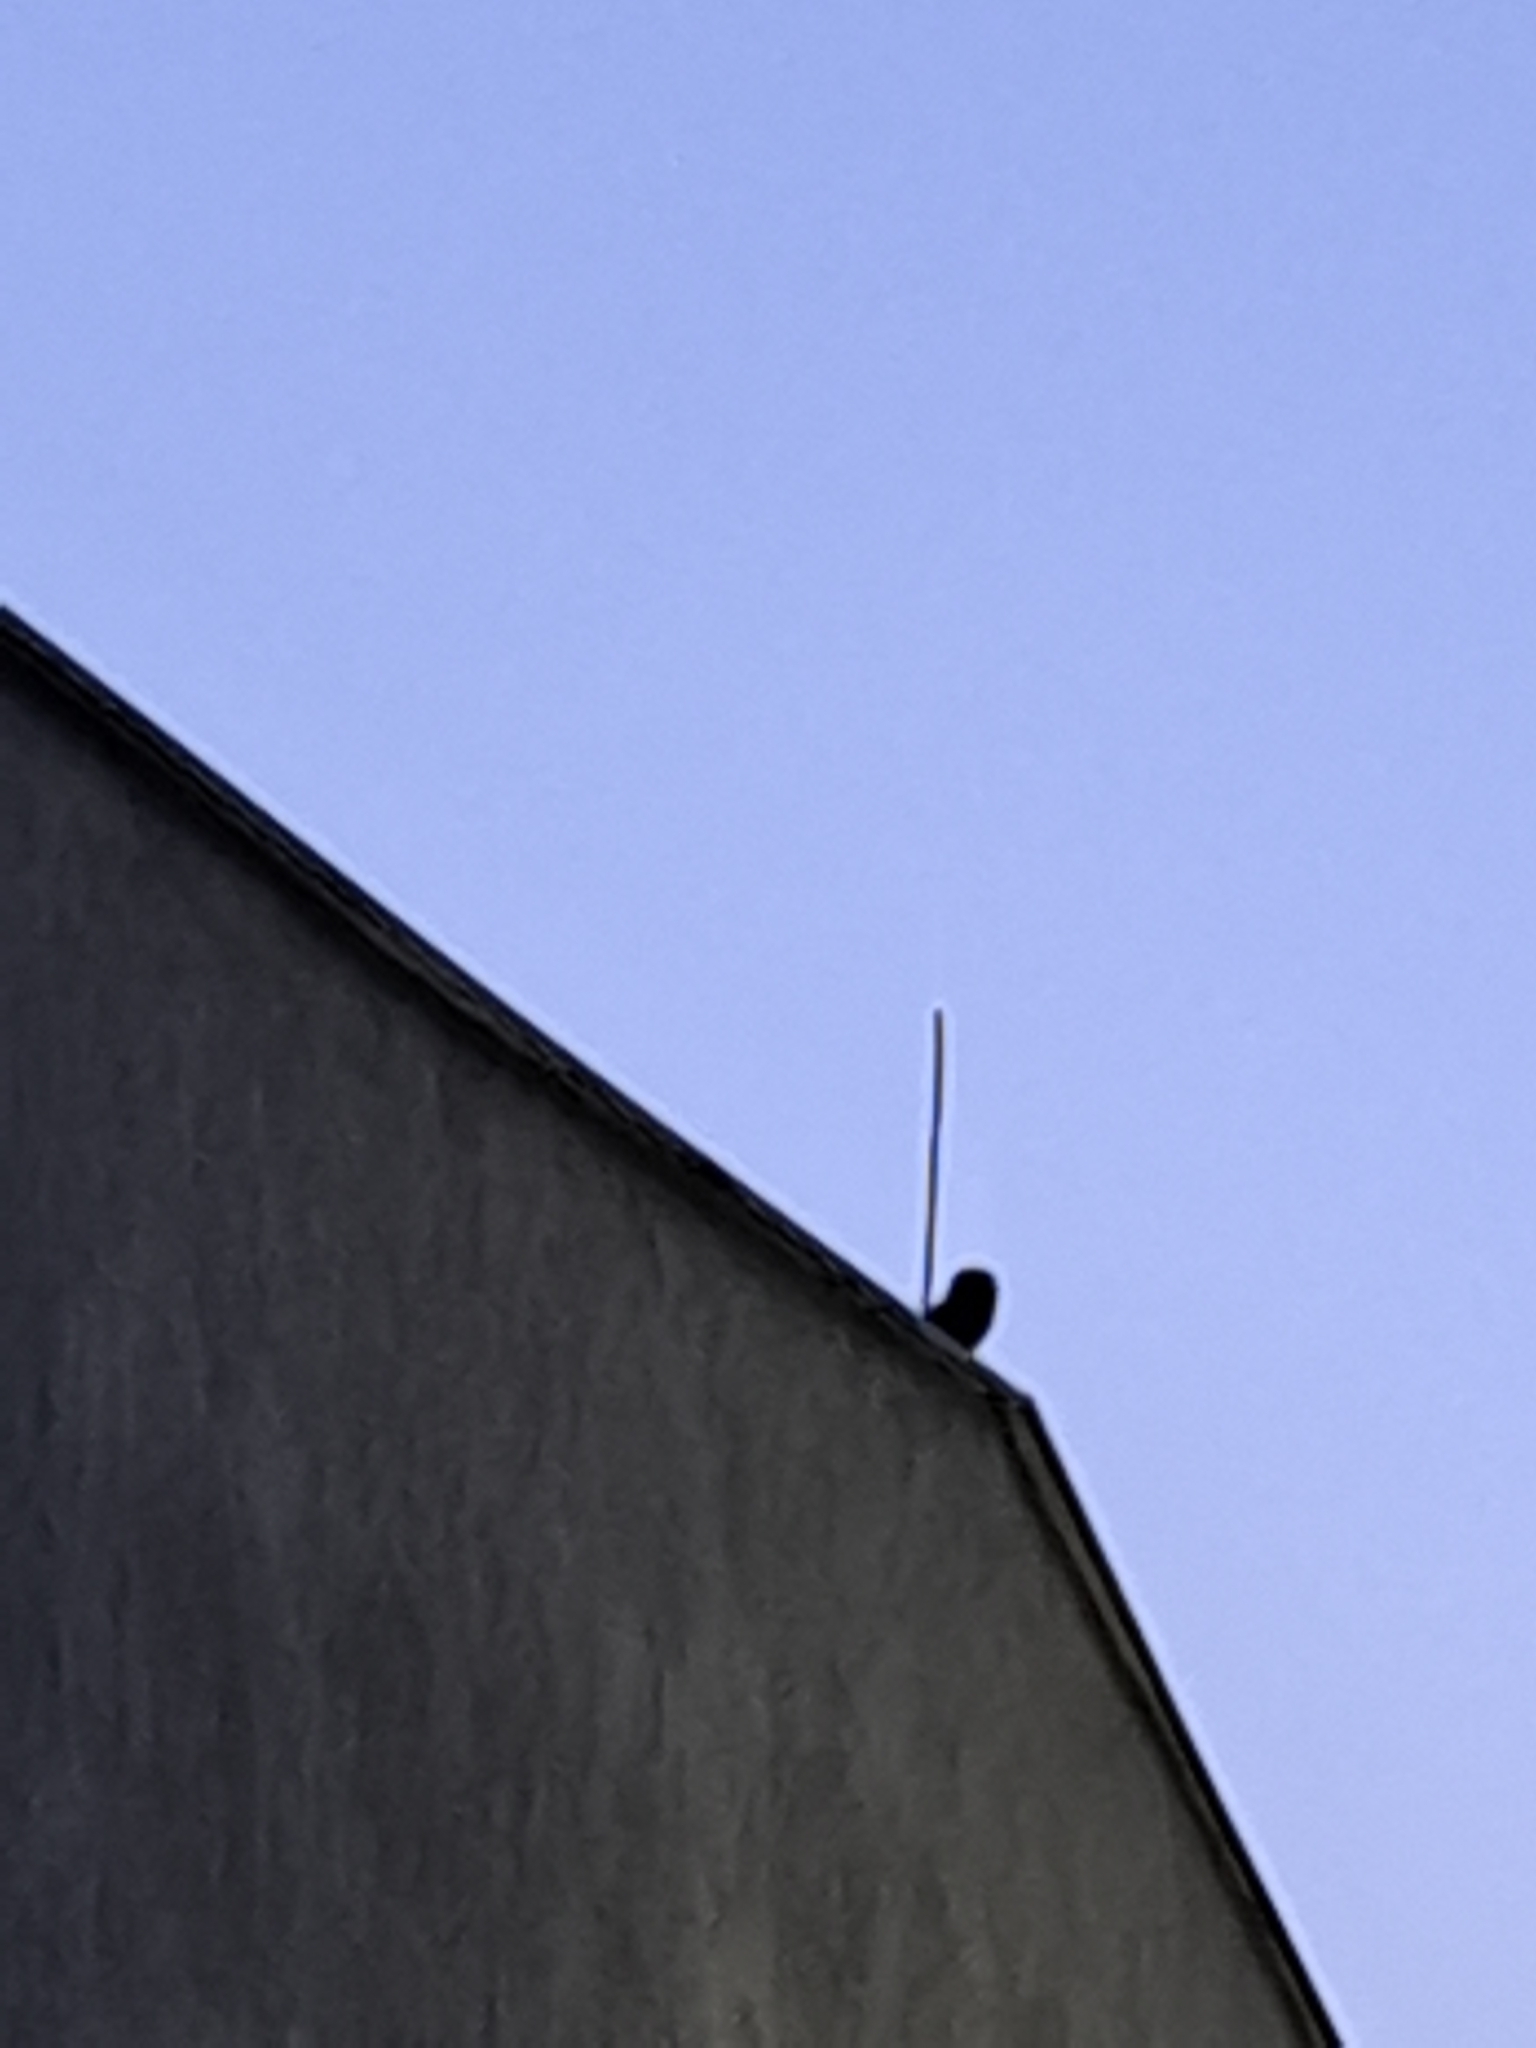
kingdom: Animalia
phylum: Chordata
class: Aves
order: Strigiformes
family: Strigidae
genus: Athene
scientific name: Athene noctua
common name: Little owl
